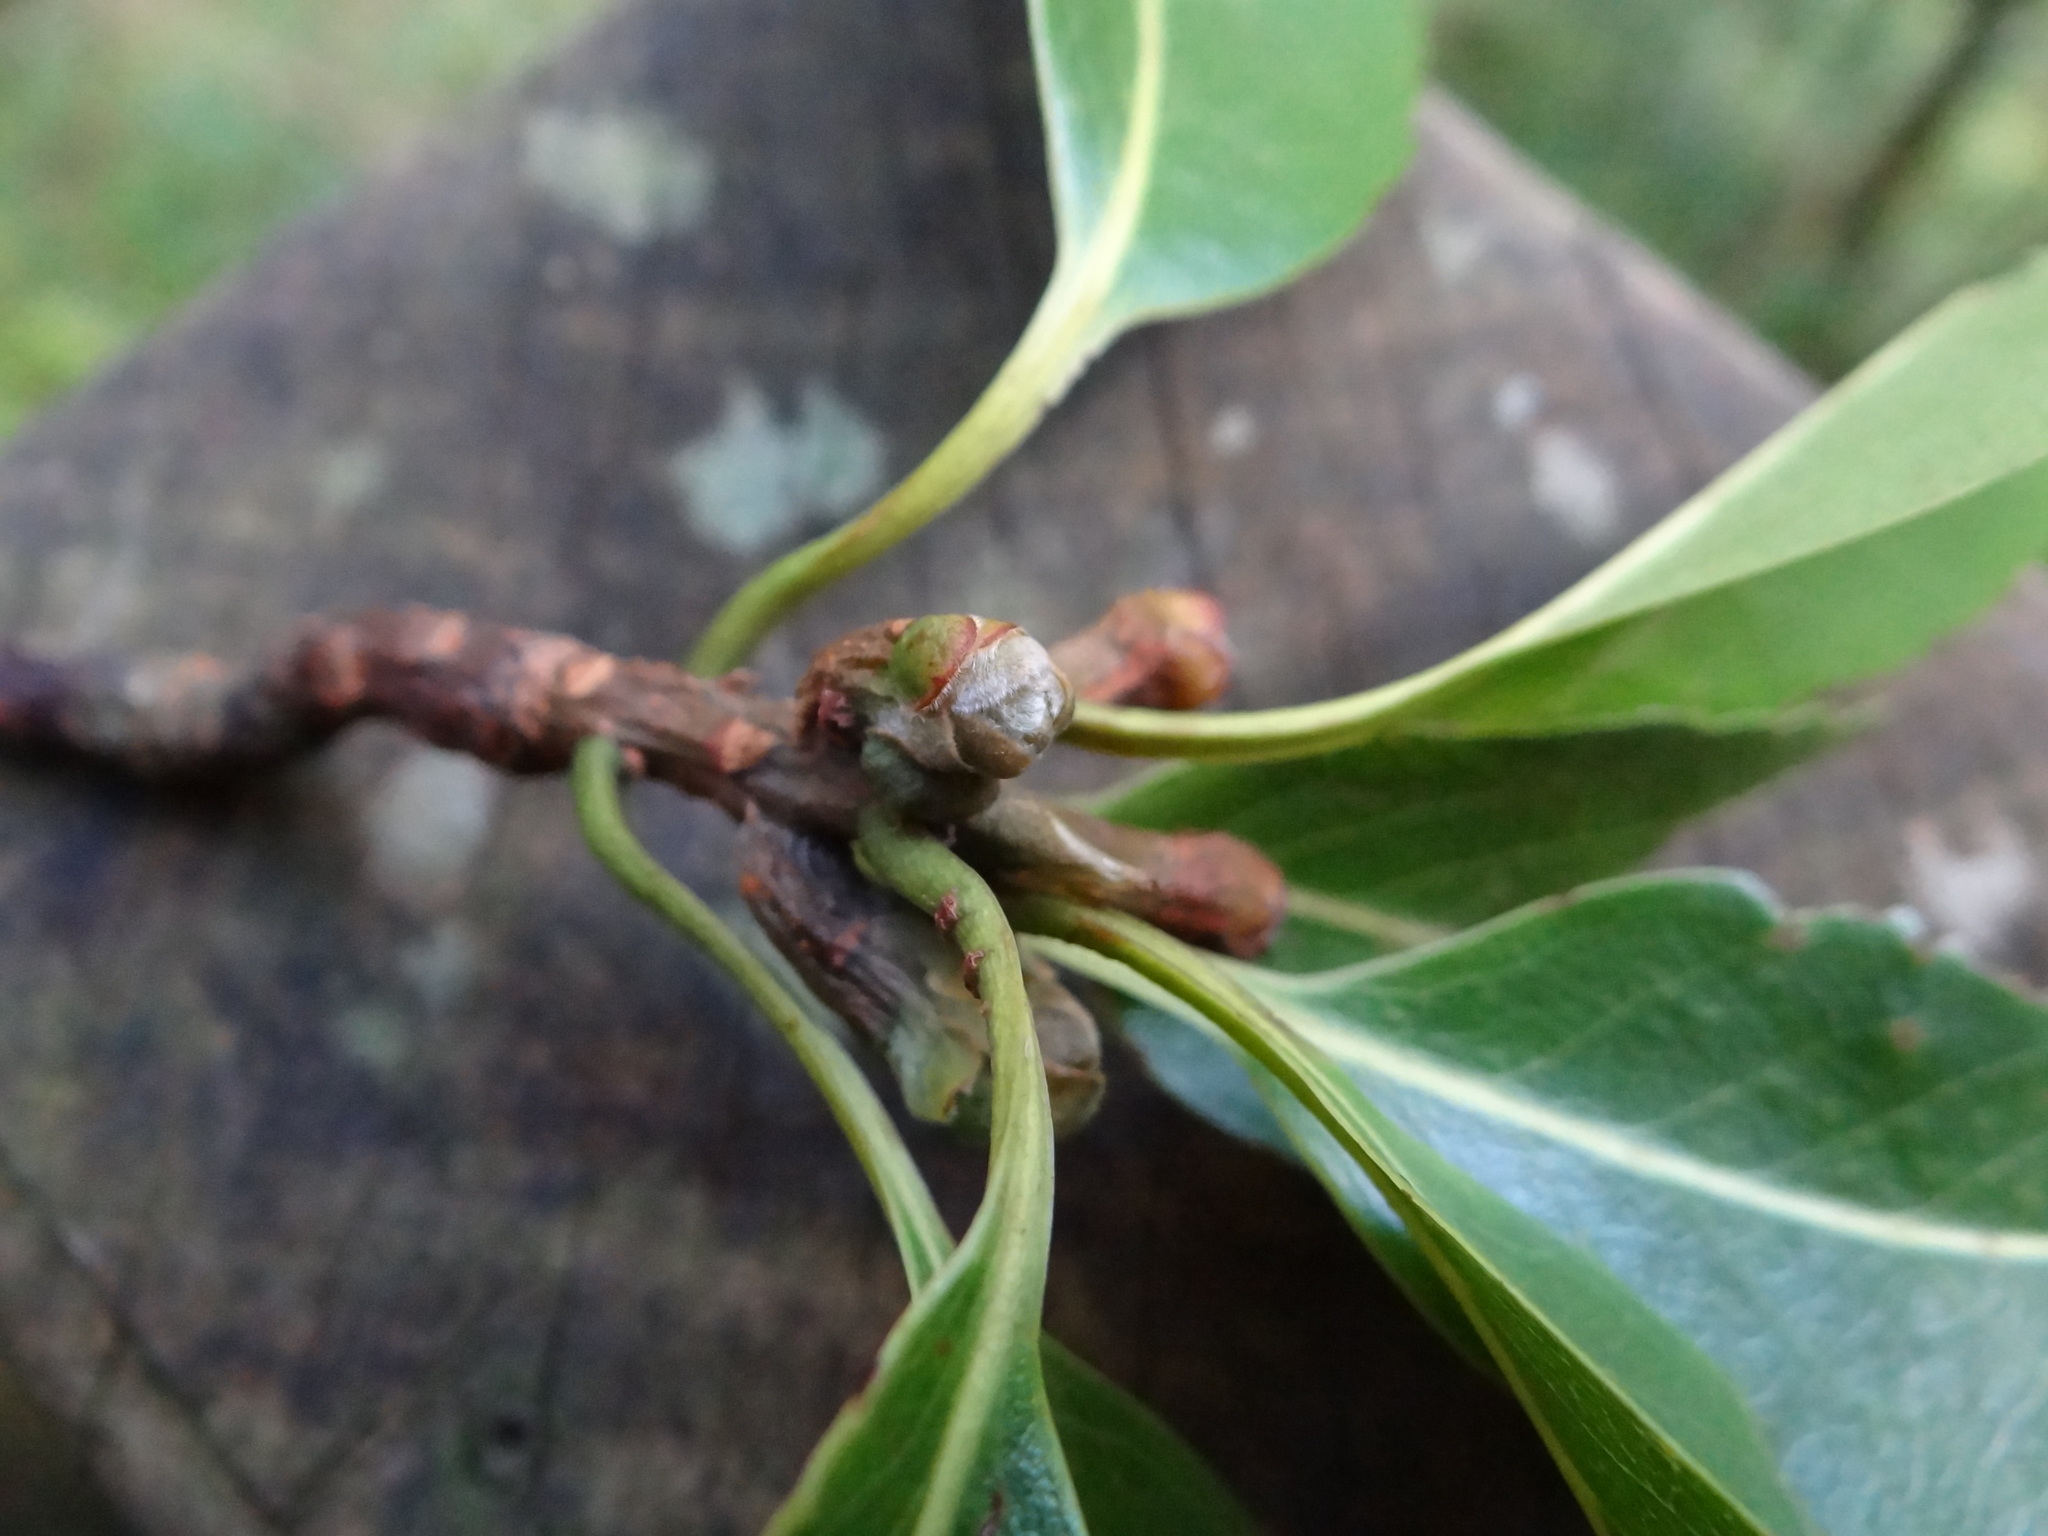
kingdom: Plantae
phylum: Tracheophyta
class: Magnoliopsida
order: Ericales
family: Theaceae
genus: Schima
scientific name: Schima superba
